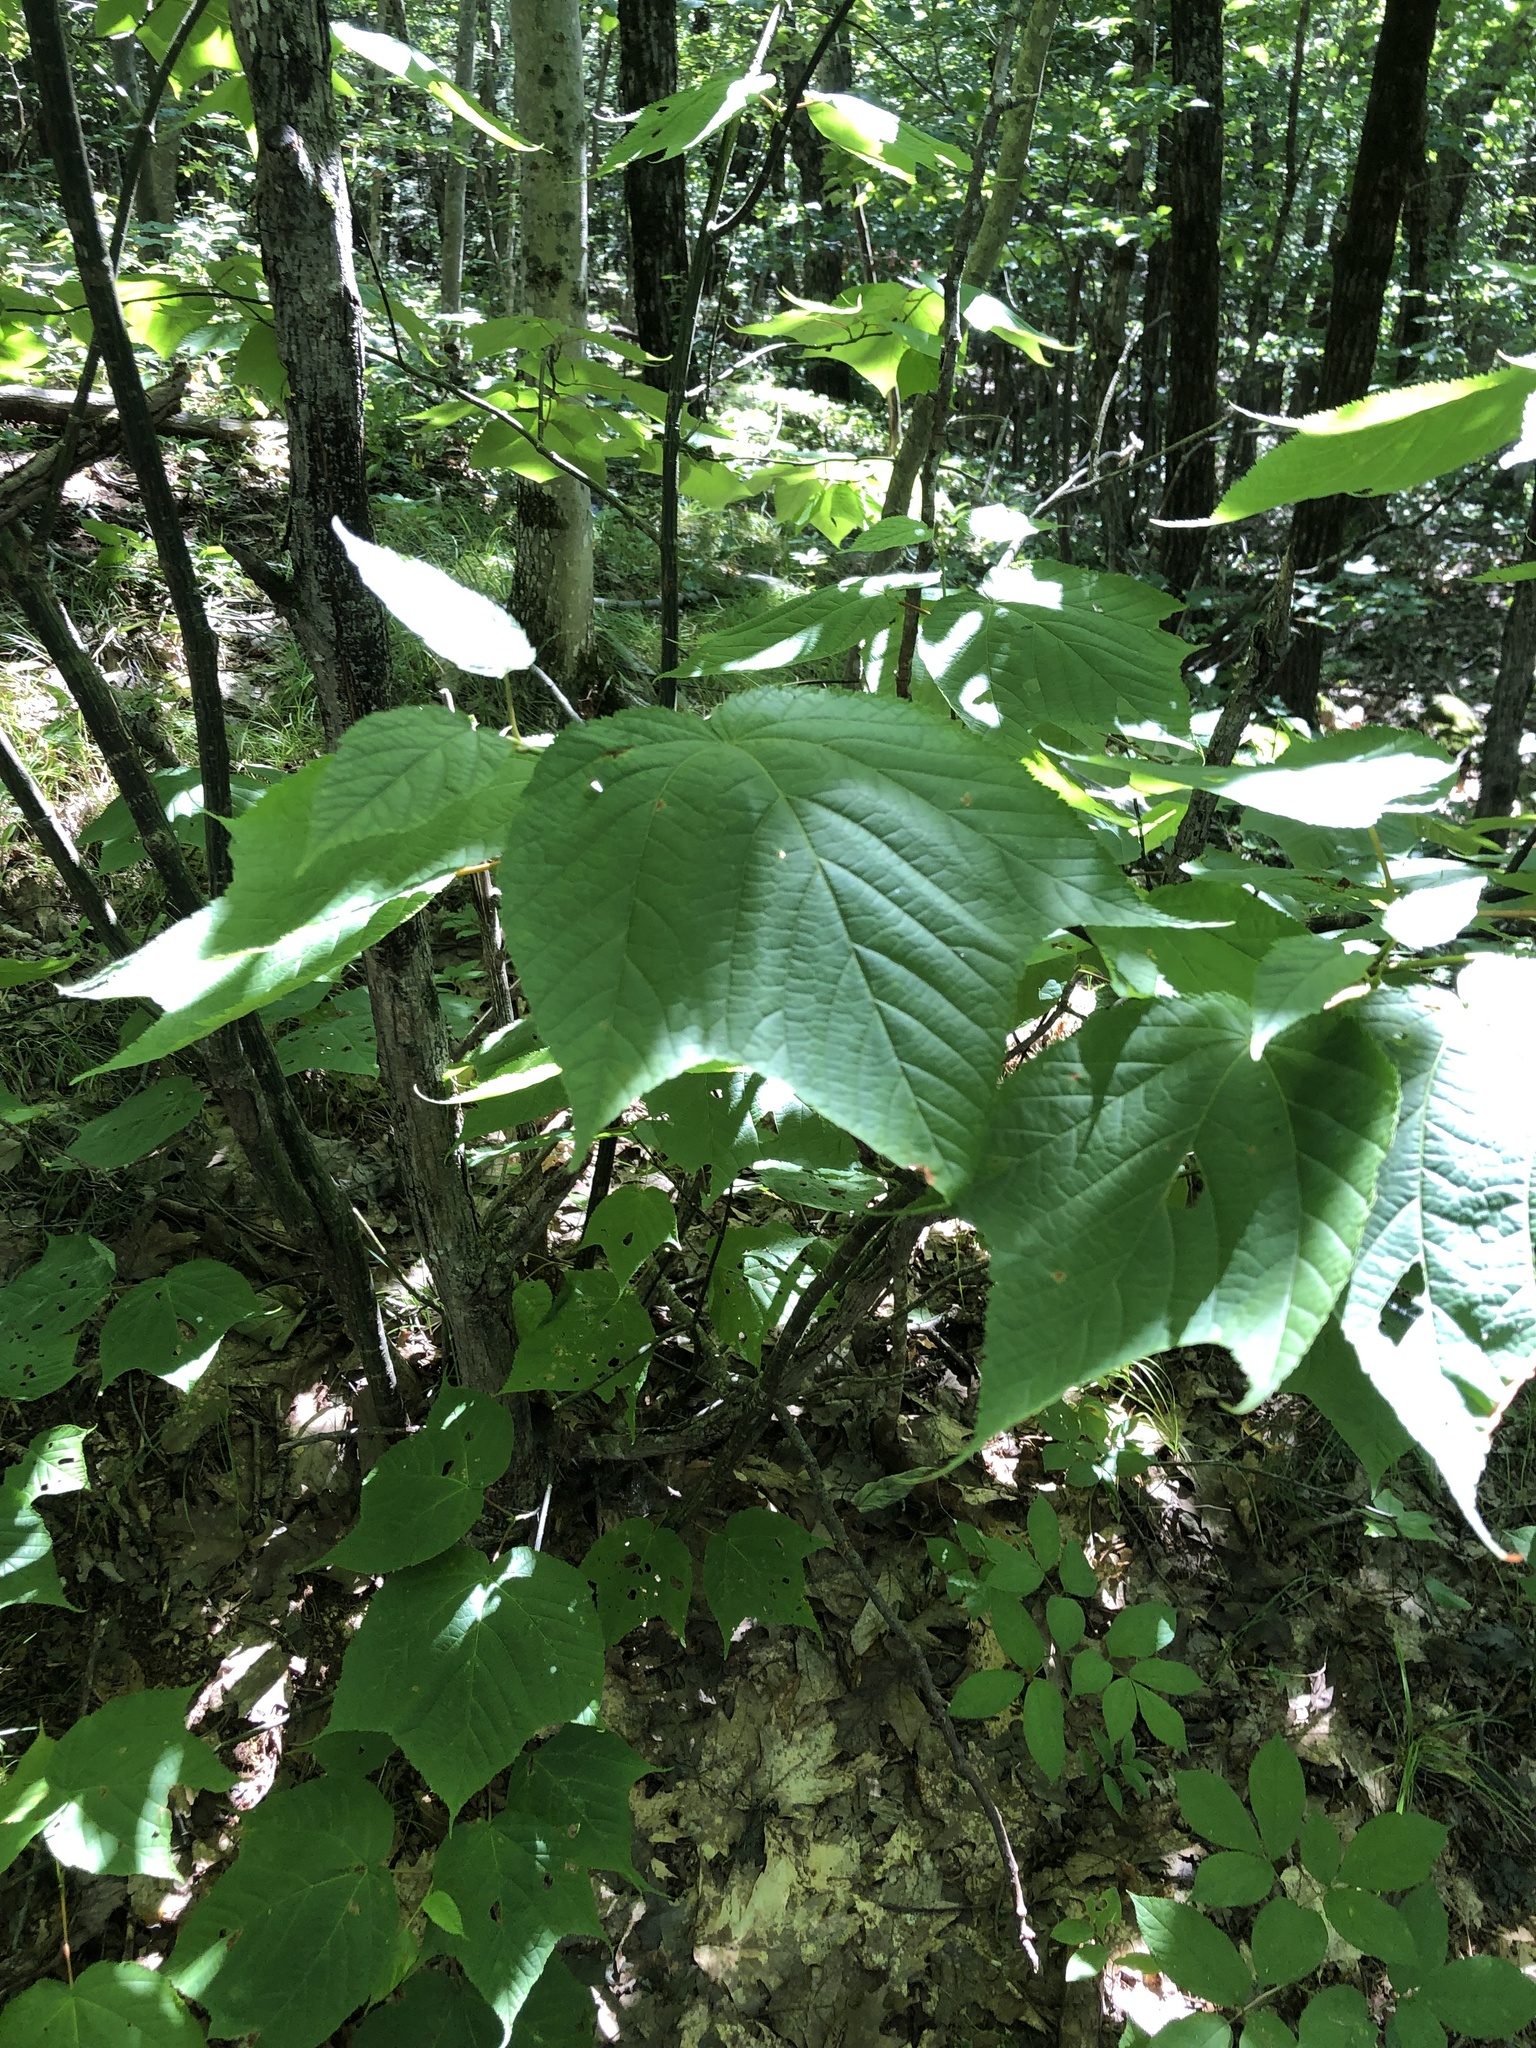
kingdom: Plantae
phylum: Tracheophyta
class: Magnoliopsida
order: Sapindales
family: Sapindaceae
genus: Acer
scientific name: Acer pensylvanicum
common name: Moosewood
